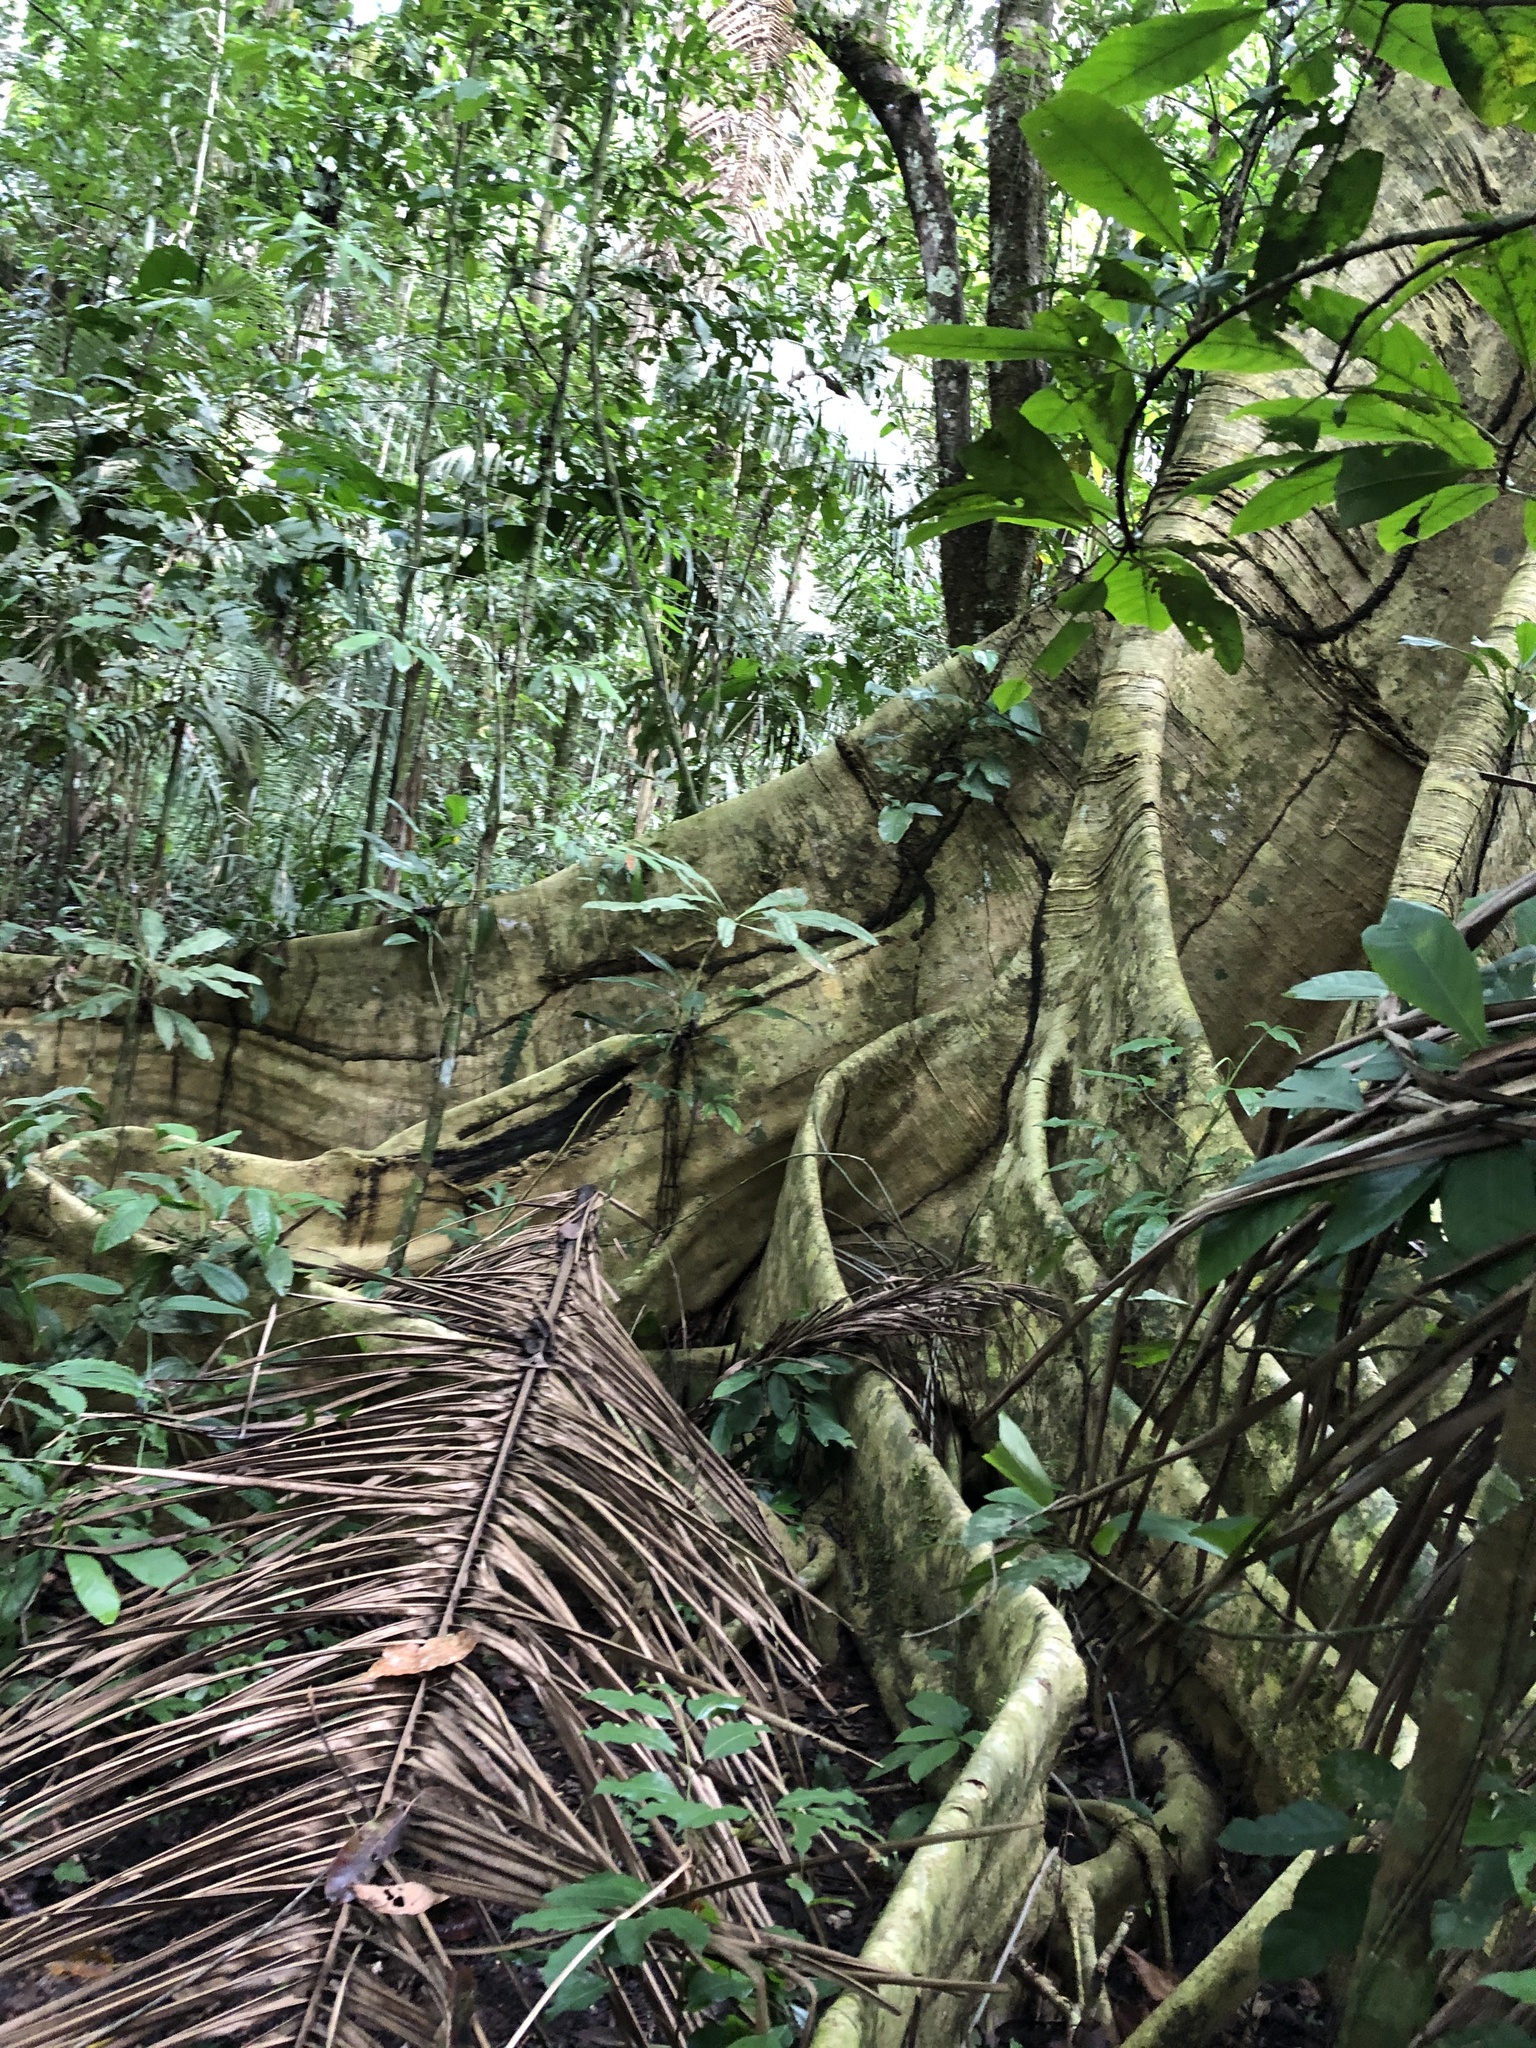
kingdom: Plantae
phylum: Tracheophyta
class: Magnoliopsida
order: Malvales
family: Malvaceae
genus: Ceiba
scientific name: Ceiba pentandra
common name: Kapok
